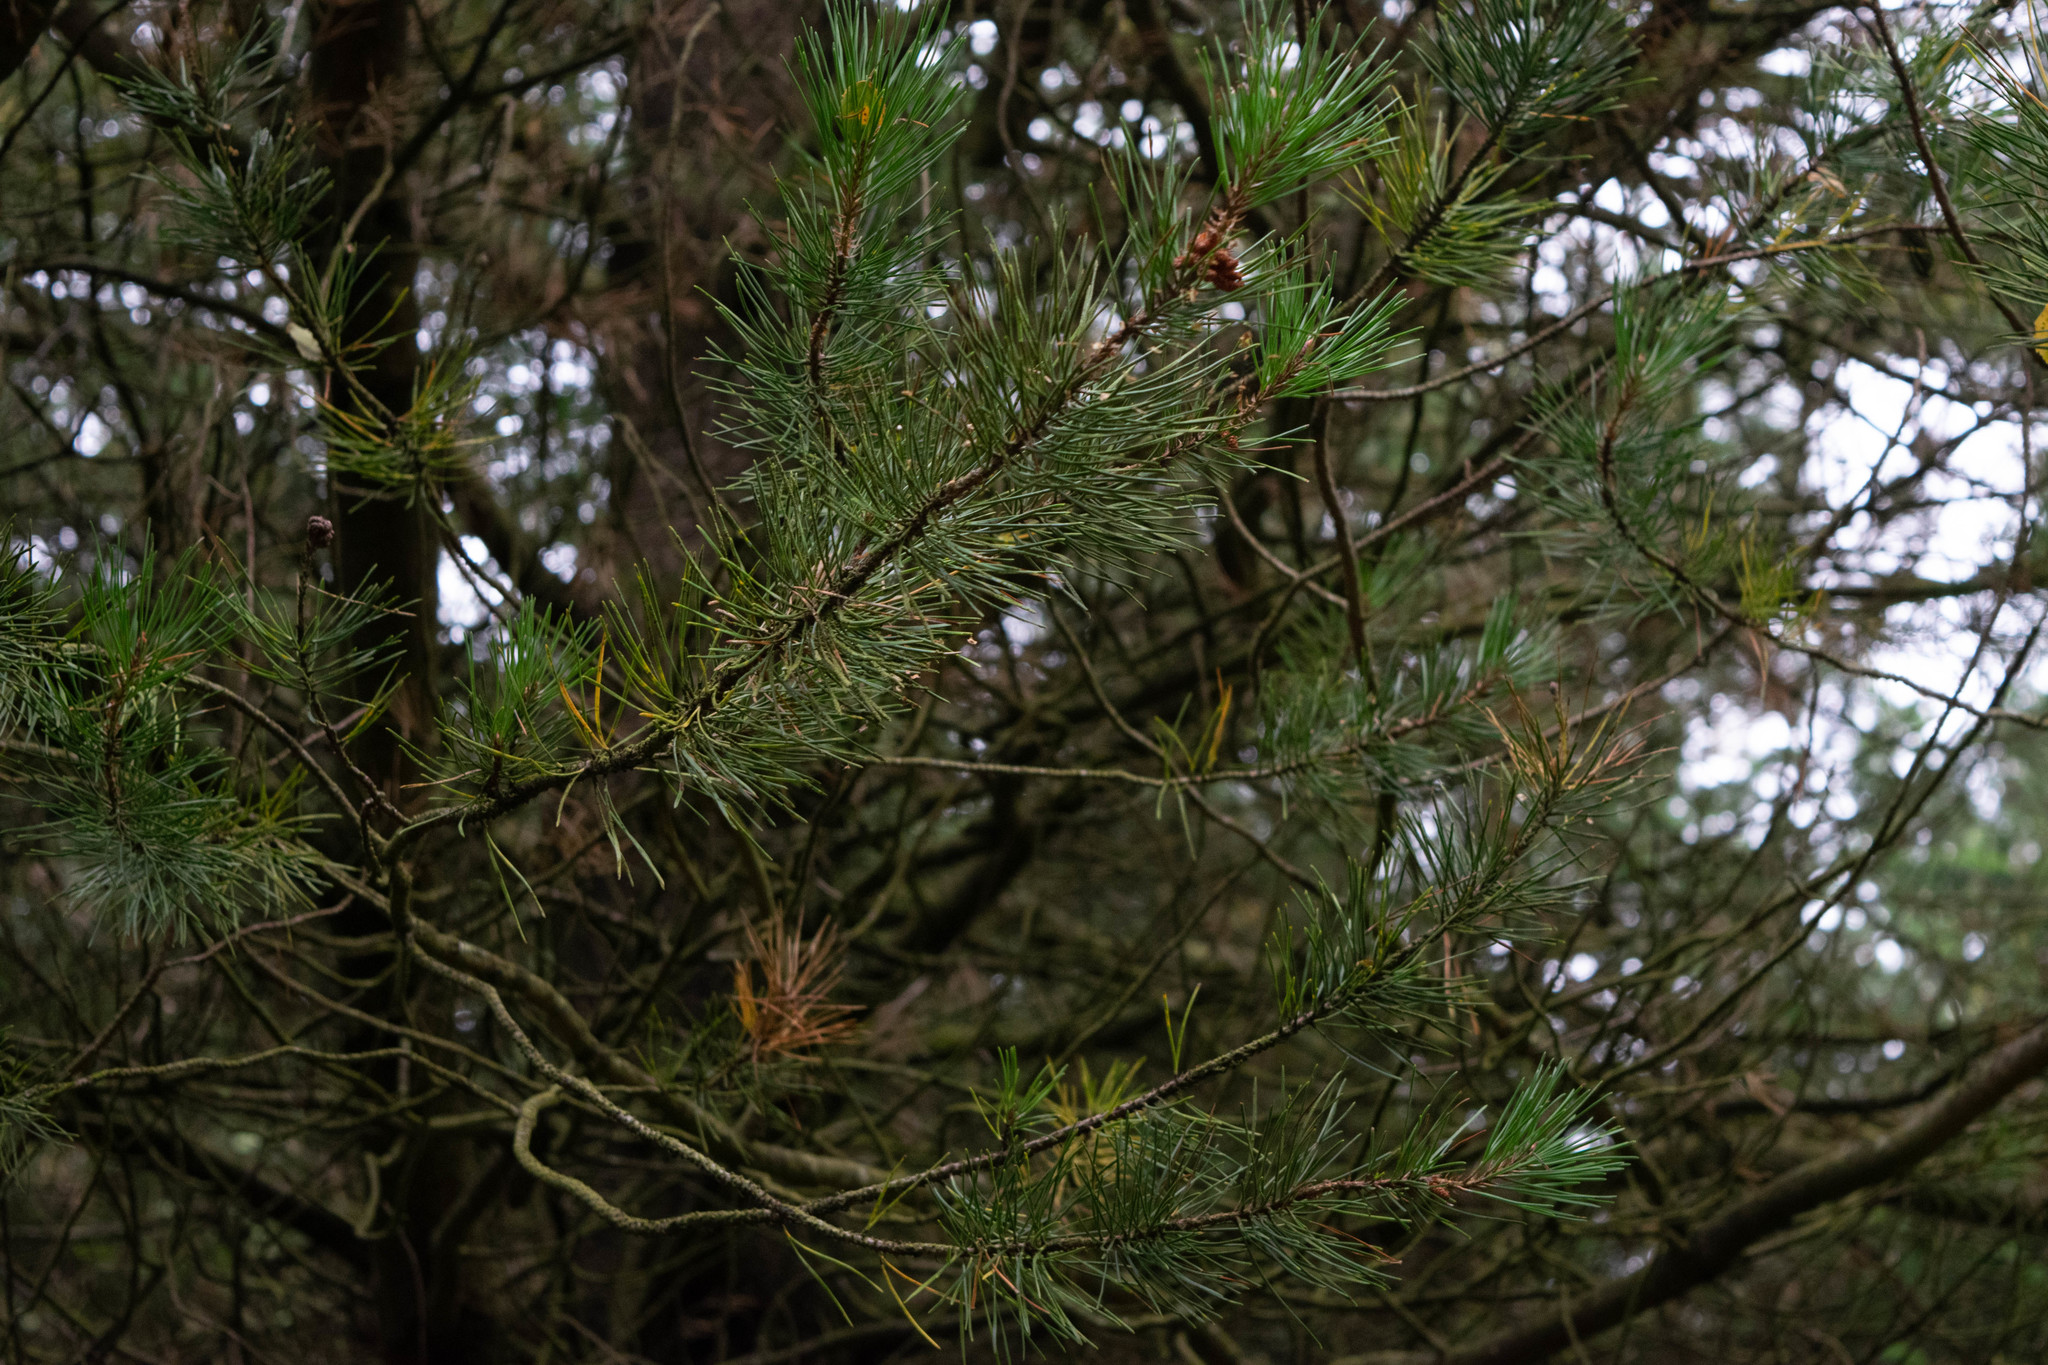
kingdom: Plantae
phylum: Tracheophyta
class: Pinopsida
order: Pinales
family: Pinaceae
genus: Pinus
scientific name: Pinus sylvestris
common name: Scots pine
